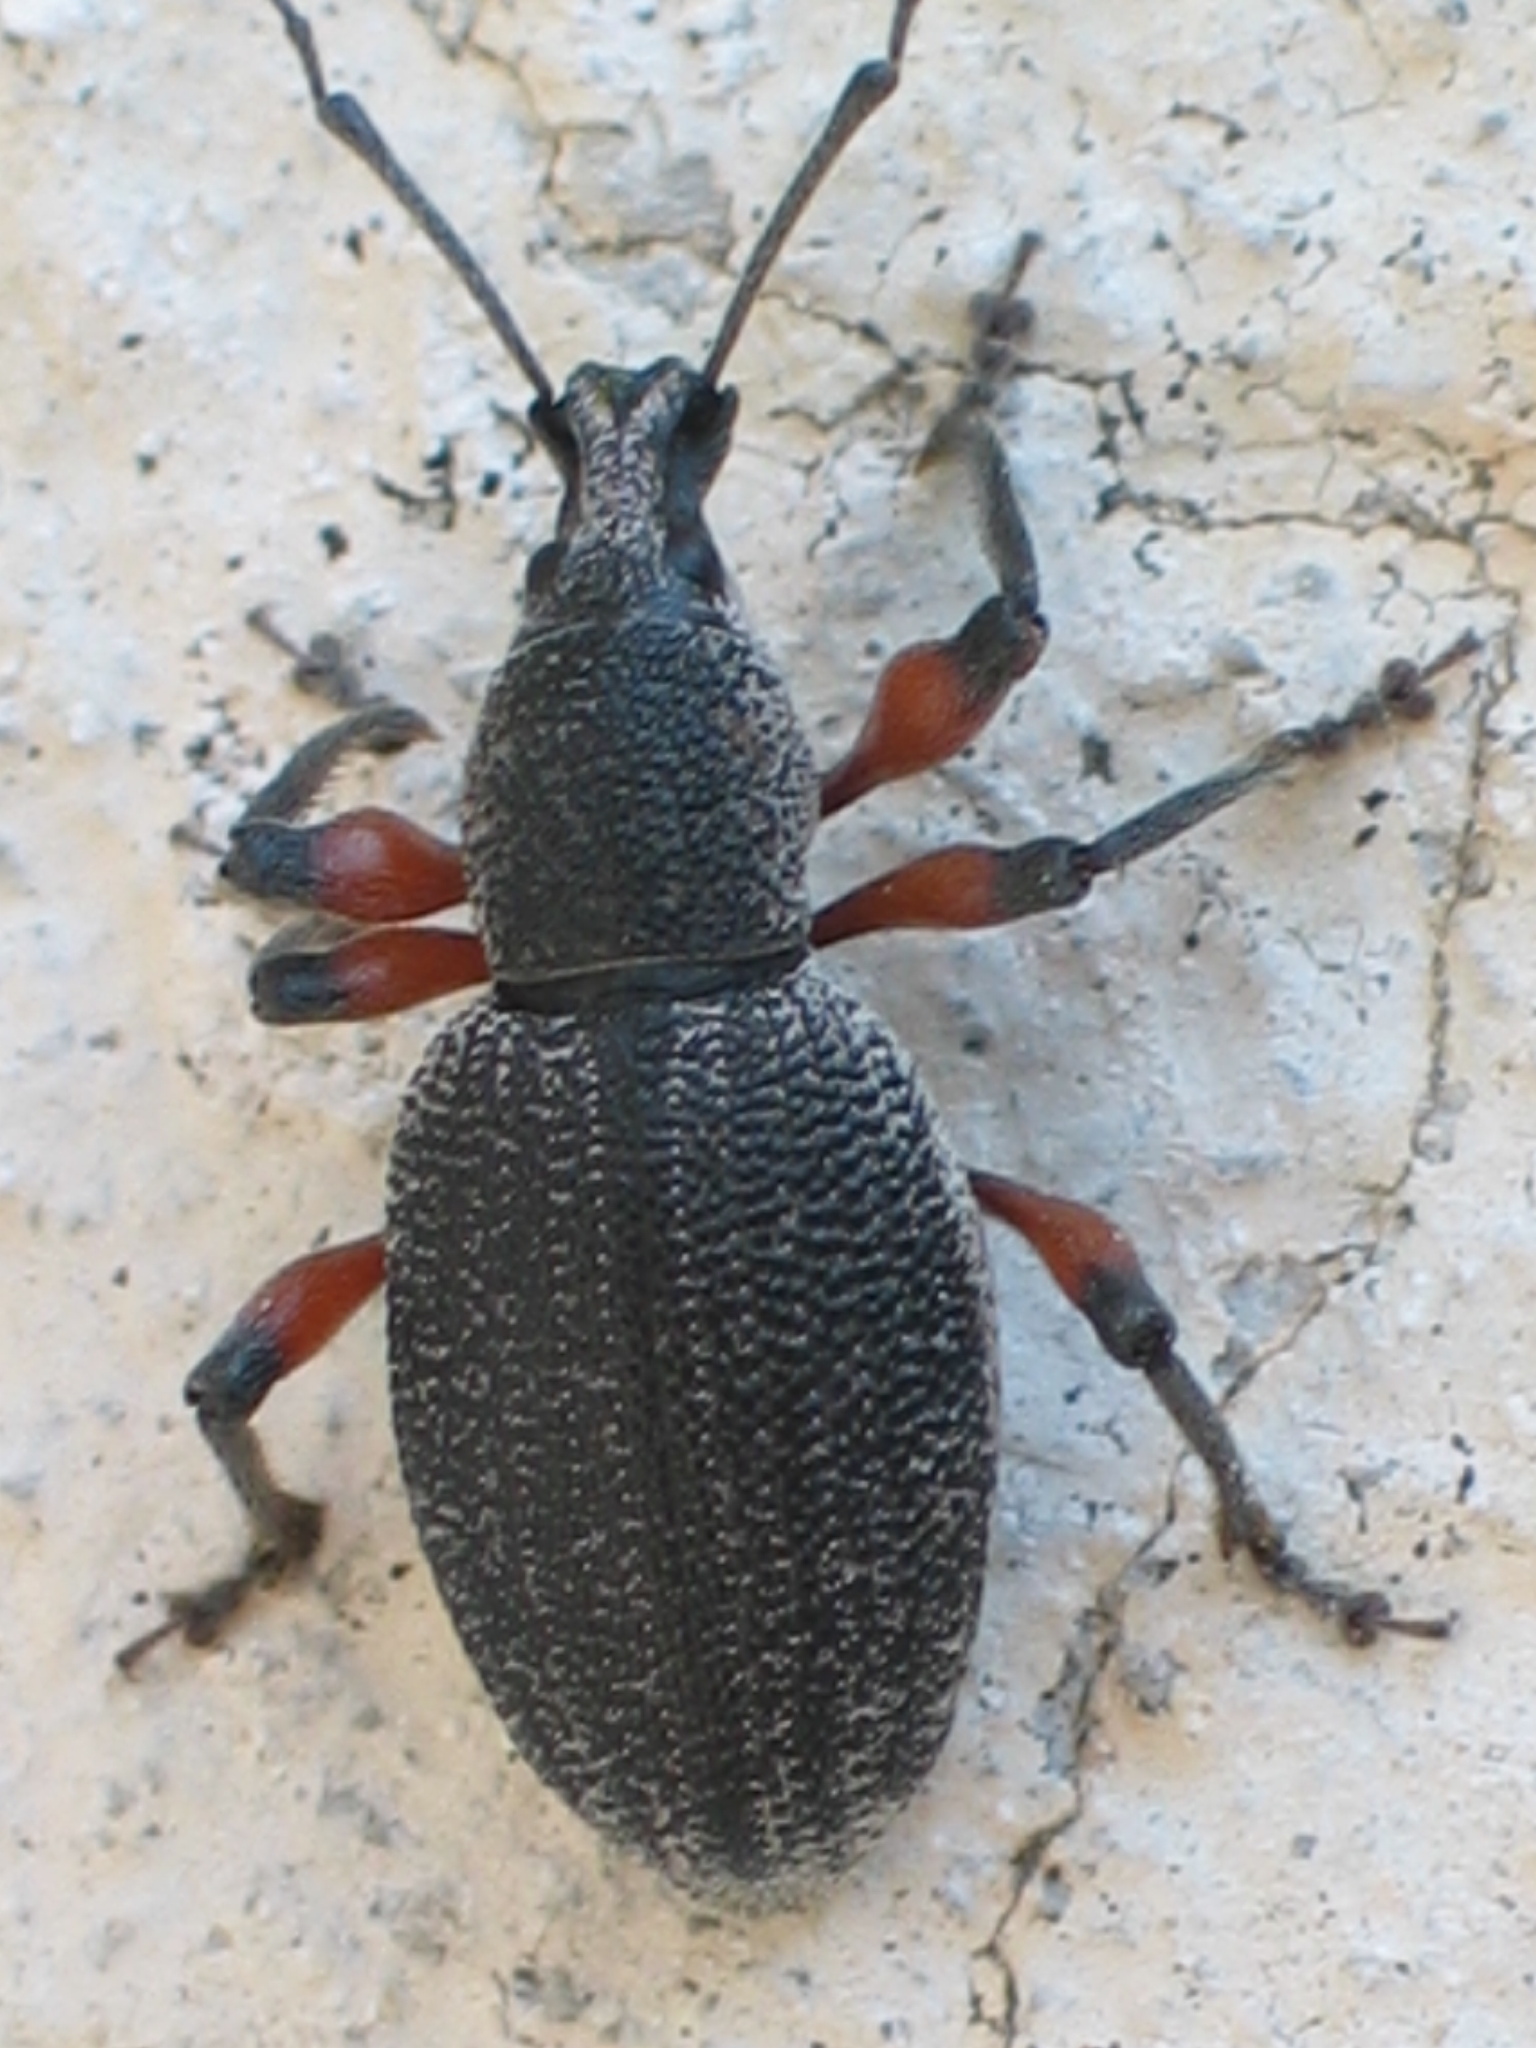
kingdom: Animalia
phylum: Arthropoda
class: Insecta
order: Coleoptera
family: Curculionidae
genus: Otiorhynchus
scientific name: Otiorhynchus cardiniger
